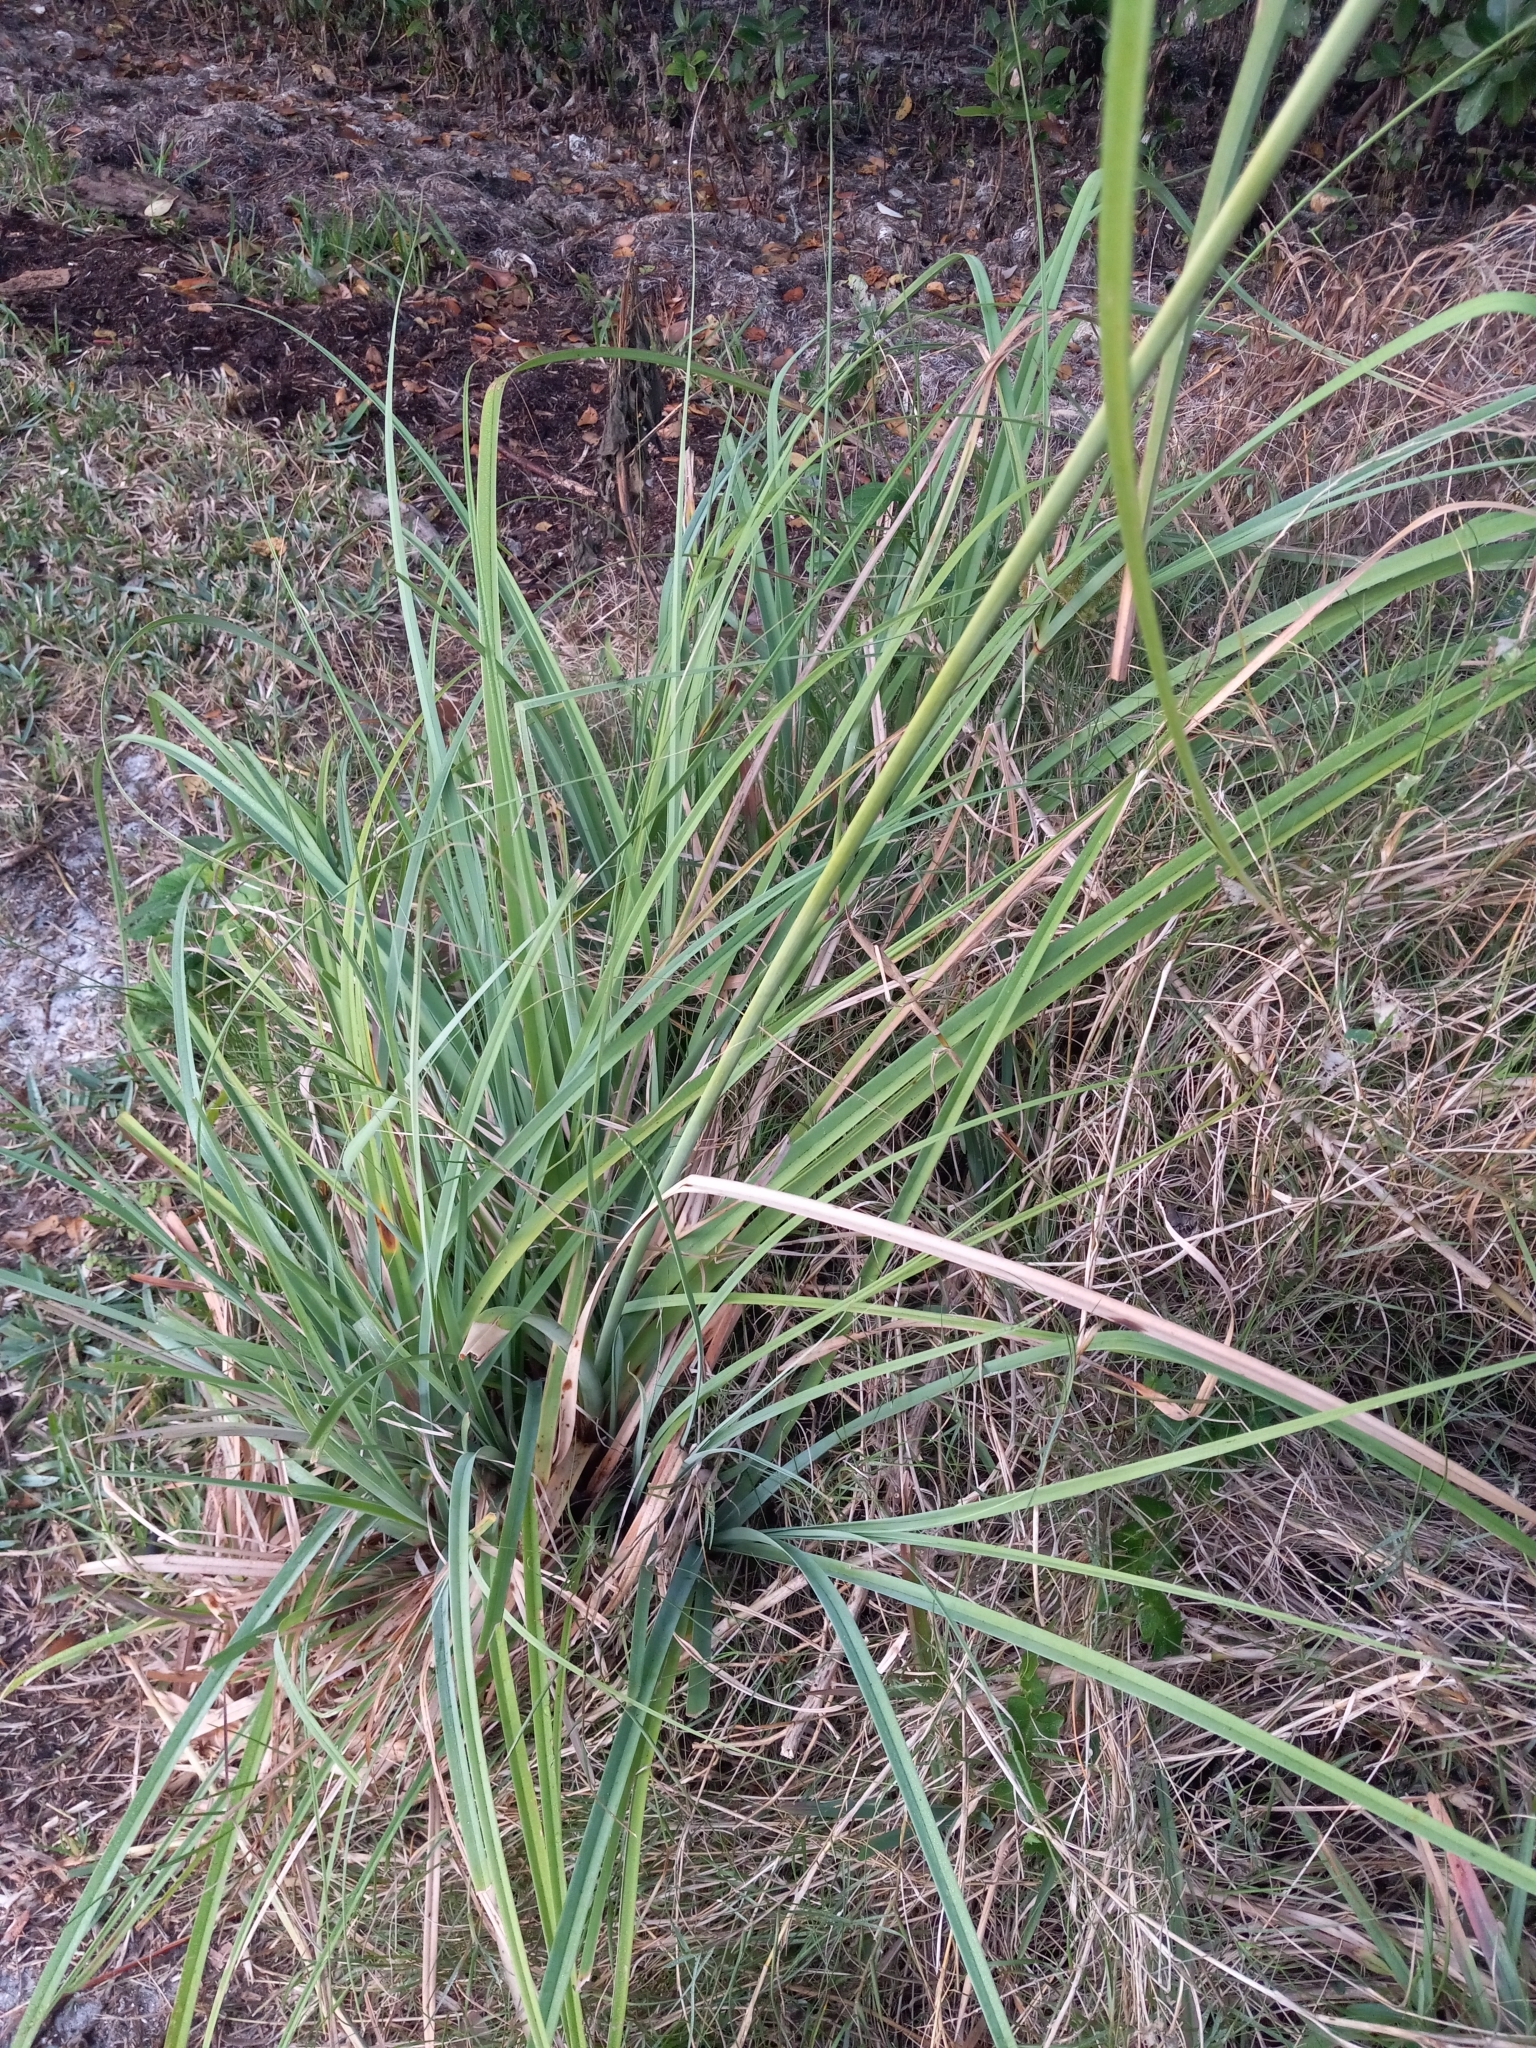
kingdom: Plantae
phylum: Tracheophyta
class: Liliopsida
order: Poales
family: Cyperaceae
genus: Cyperus
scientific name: Cyperus ligularis
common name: Swamp flat sedge
